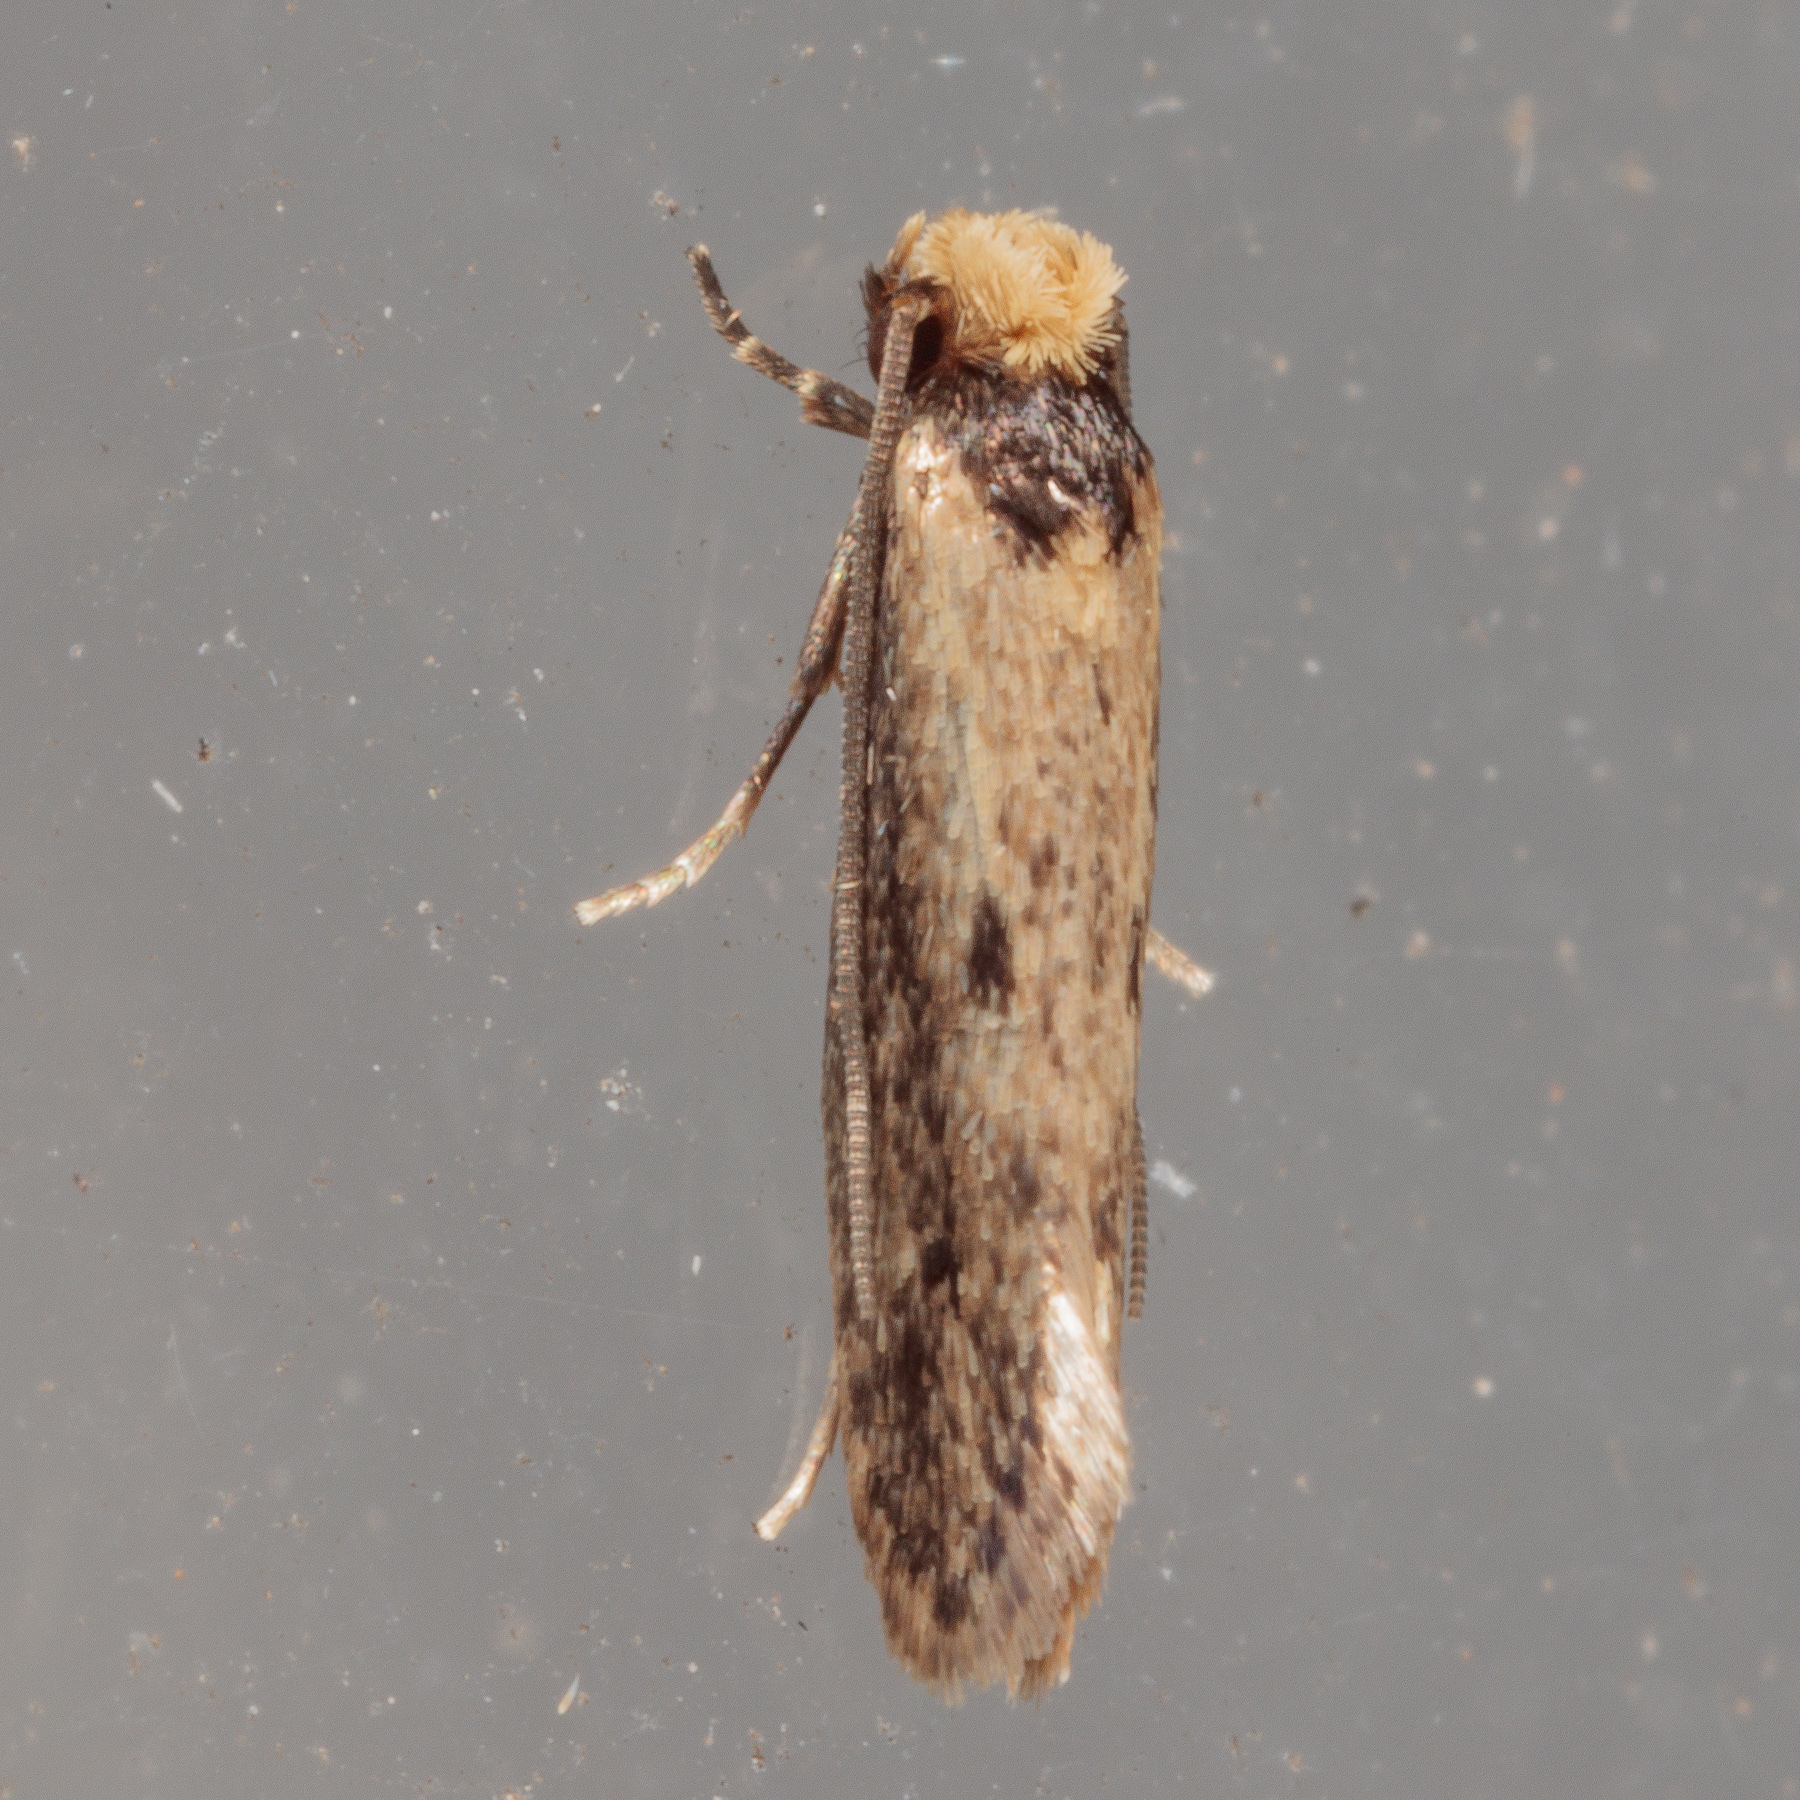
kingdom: Animalia
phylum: Arthropoda
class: Insecta
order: Lepidoptera
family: Tineidae
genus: Tinea
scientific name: Tinea apicimaculella
